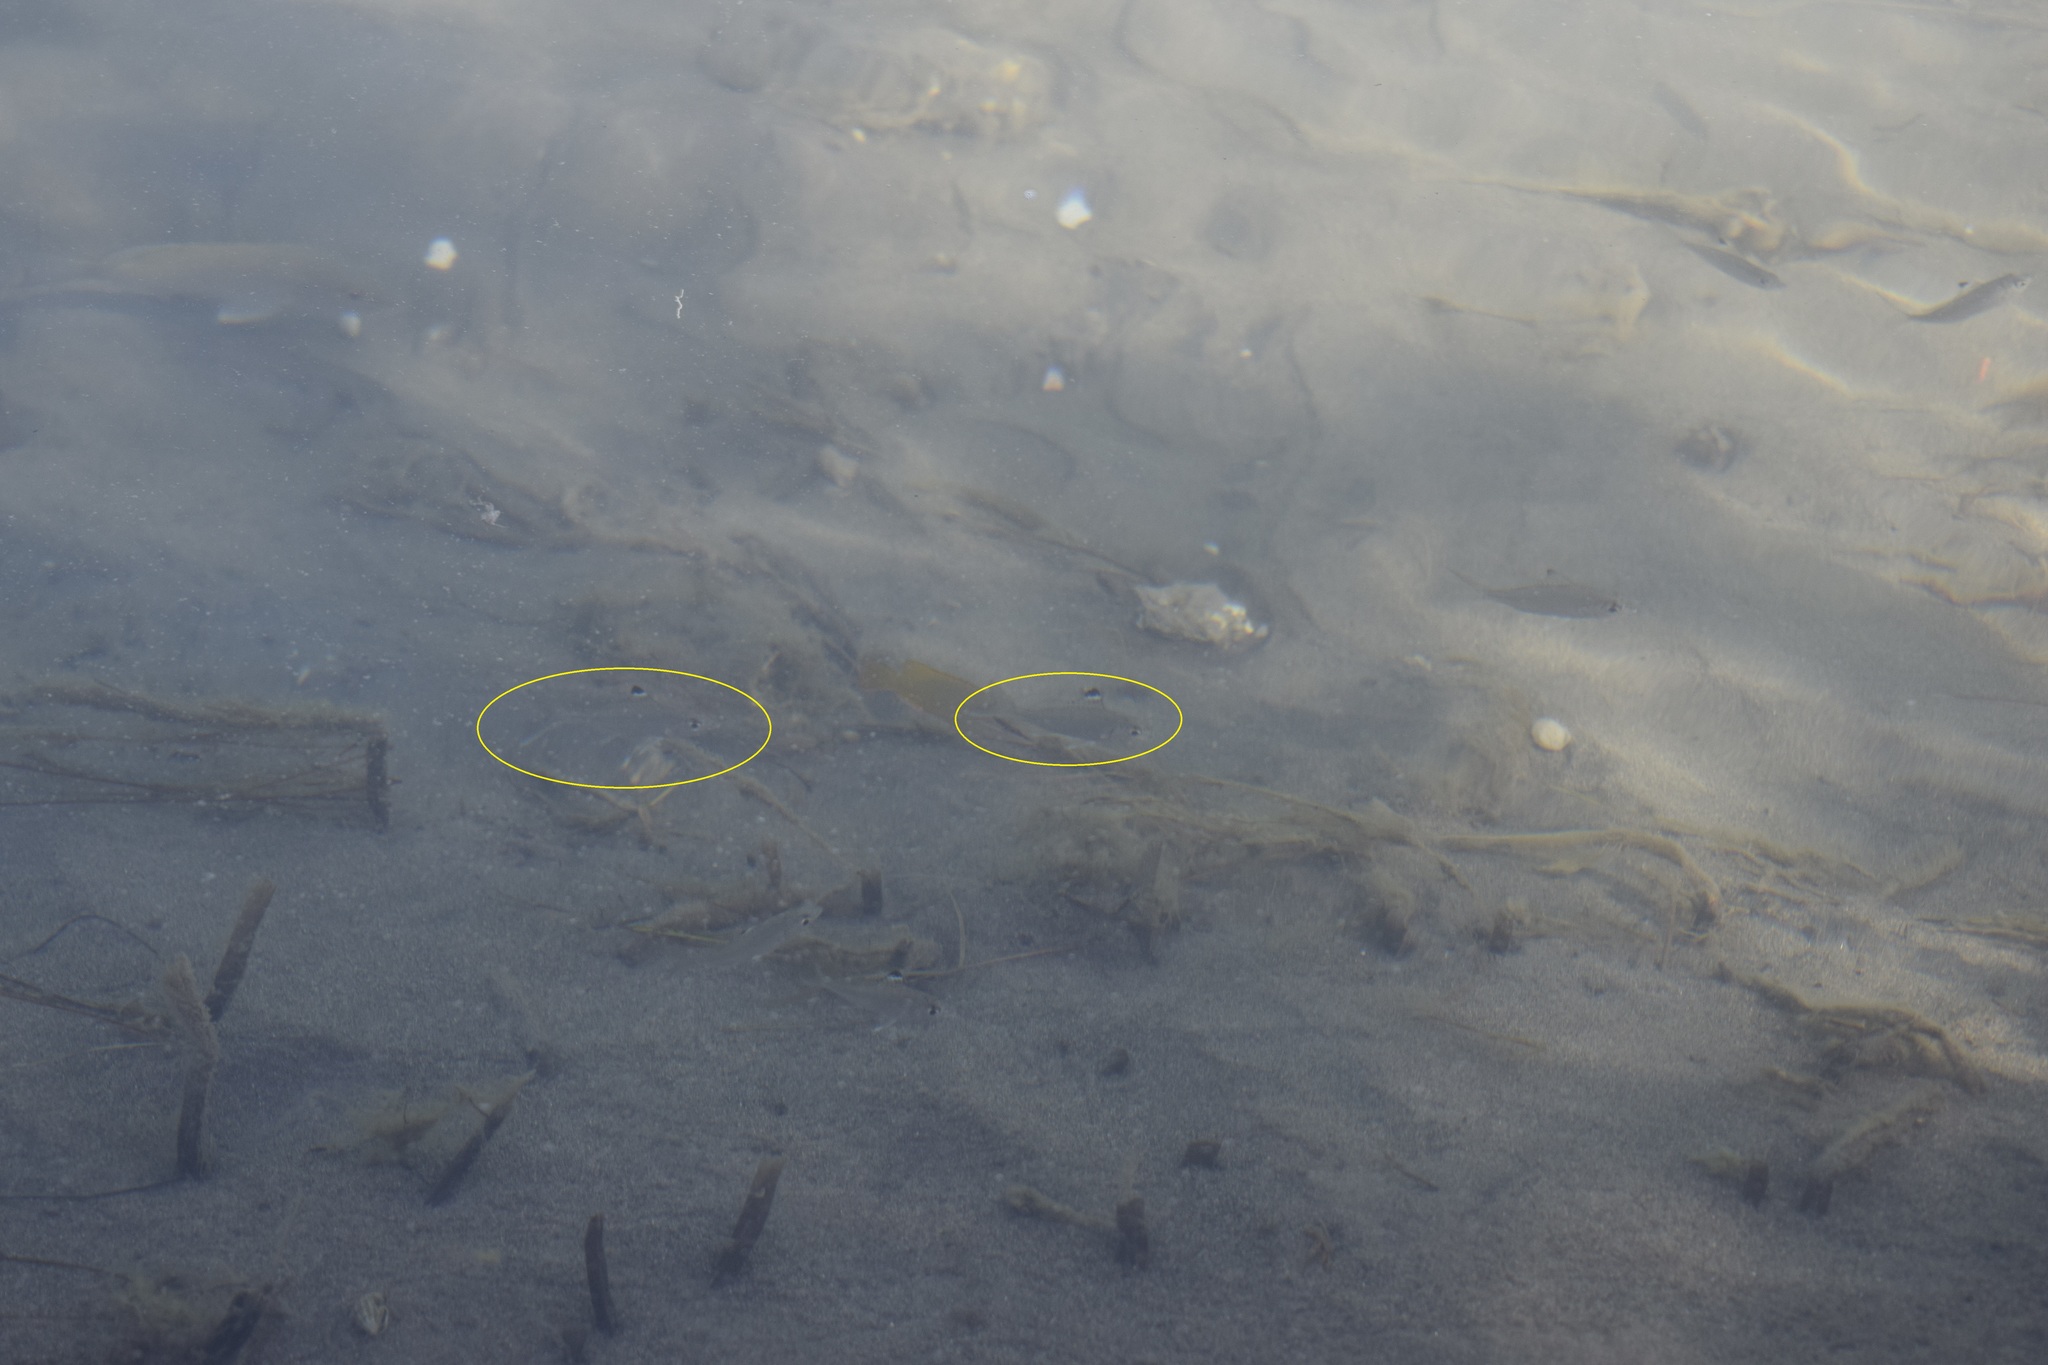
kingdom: Animalia
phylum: Chordata
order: Perciformes
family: Gerreidae
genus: Eucinostomus
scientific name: Eucinostomus melanopterus
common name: Flagfin mojarra
